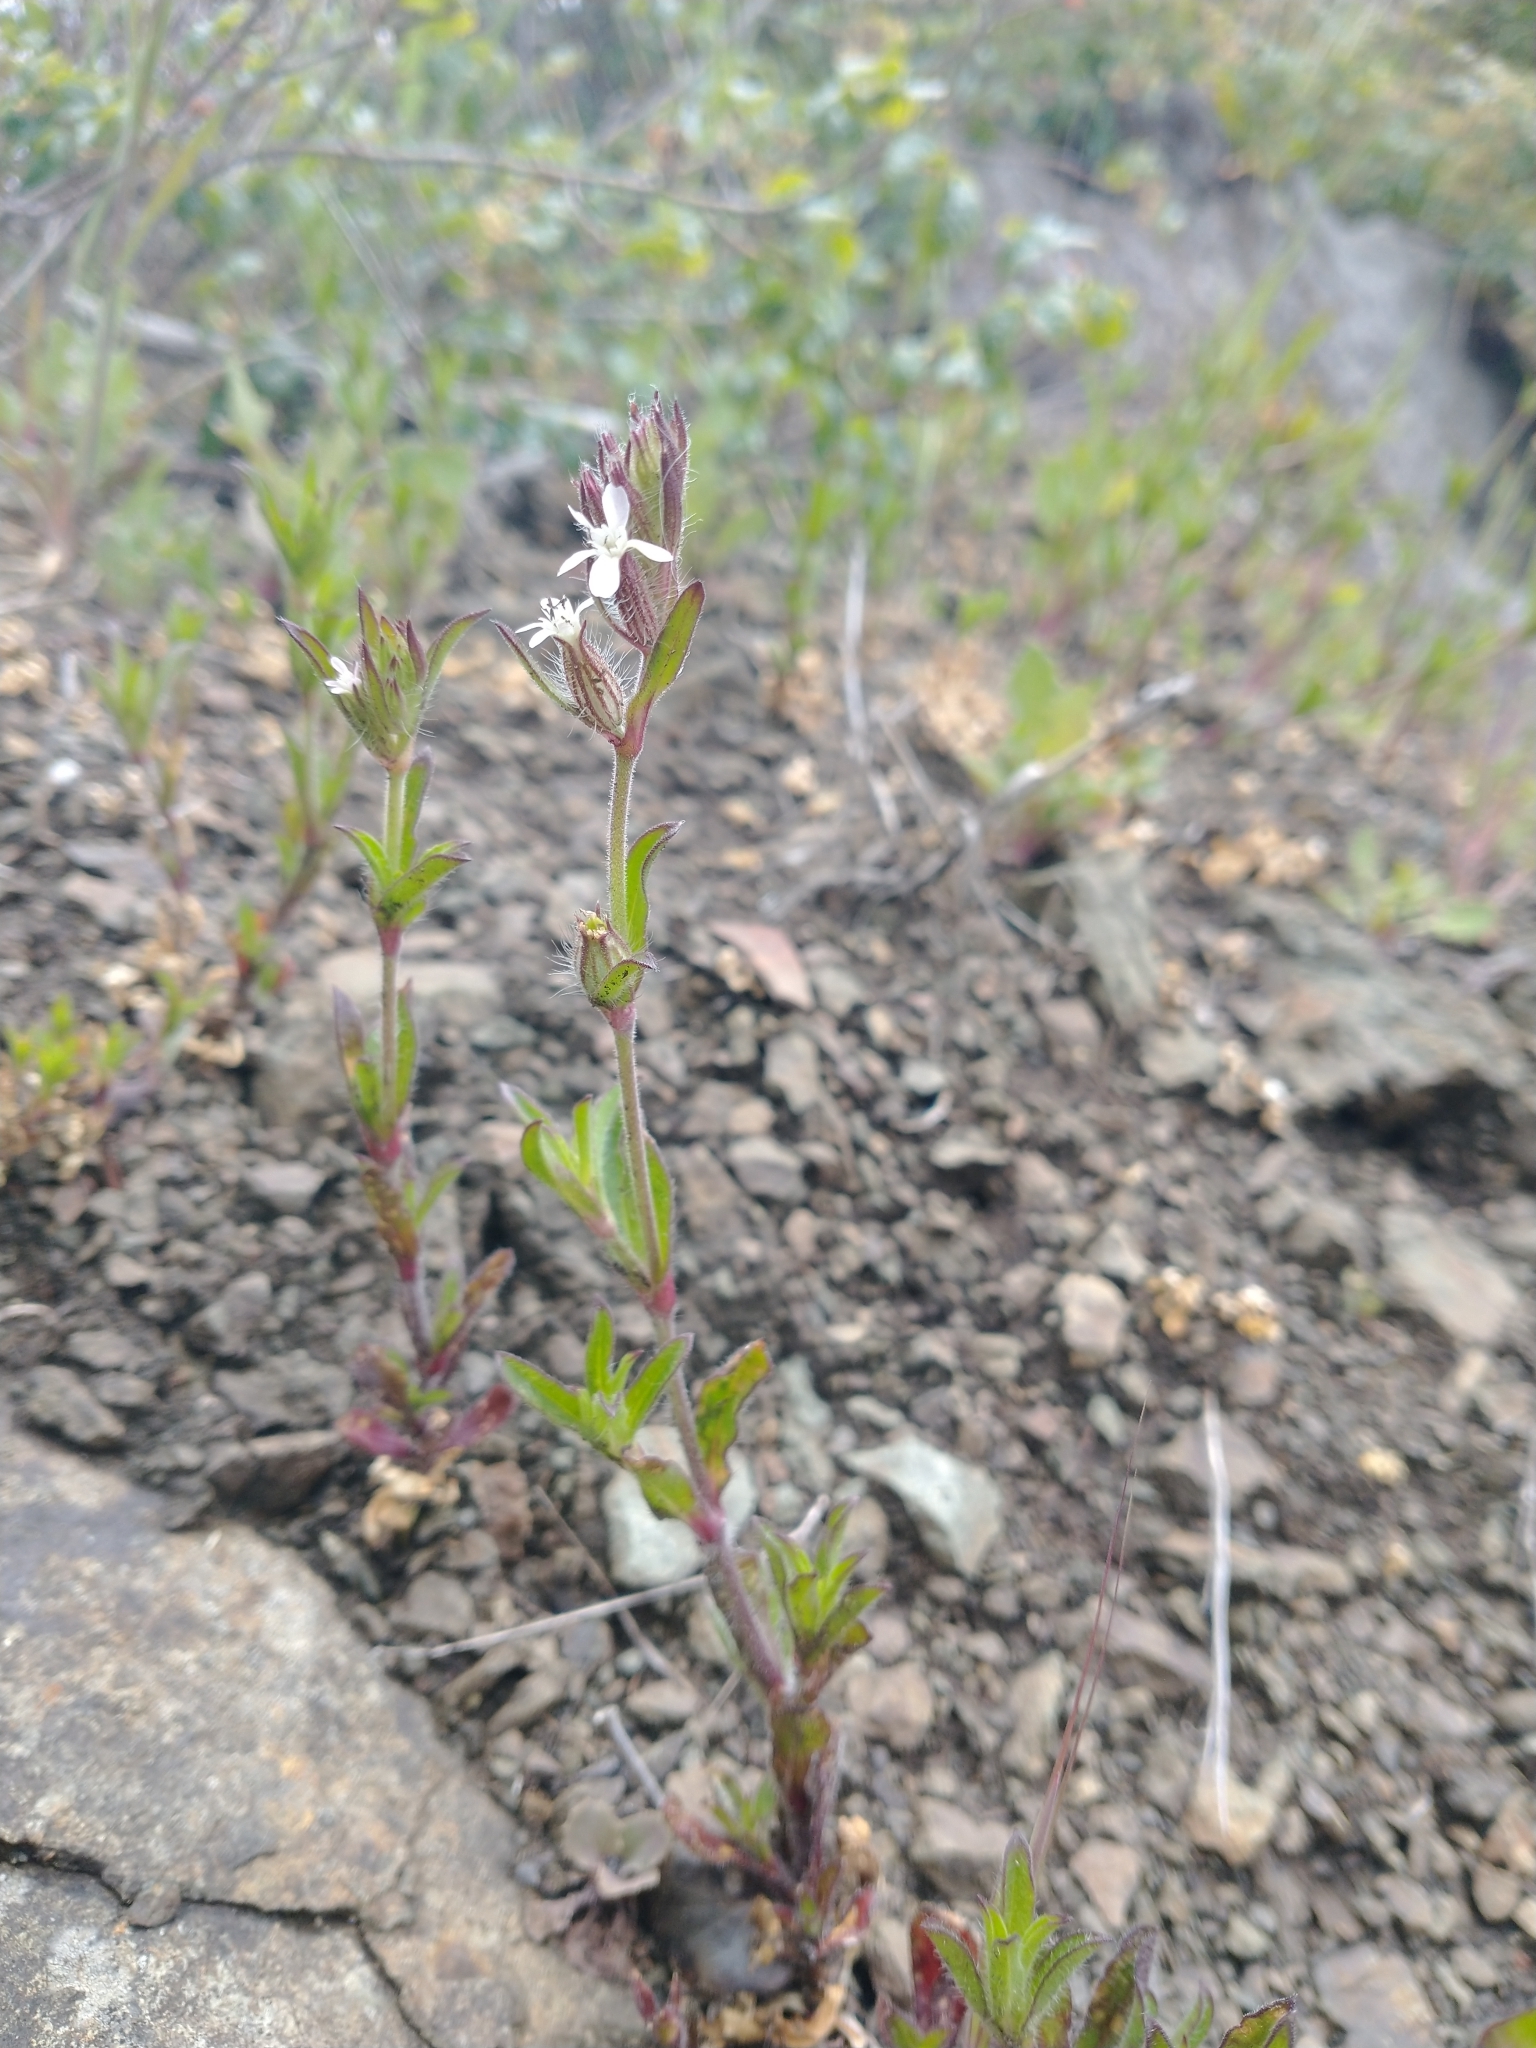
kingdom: Plantae
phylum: Tracheophyta
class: Magnoliopsida
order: Caryophyllales
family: Caryophyllaceae
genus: Silene
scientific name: Silene gallica
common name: Small-flowered catchfly
